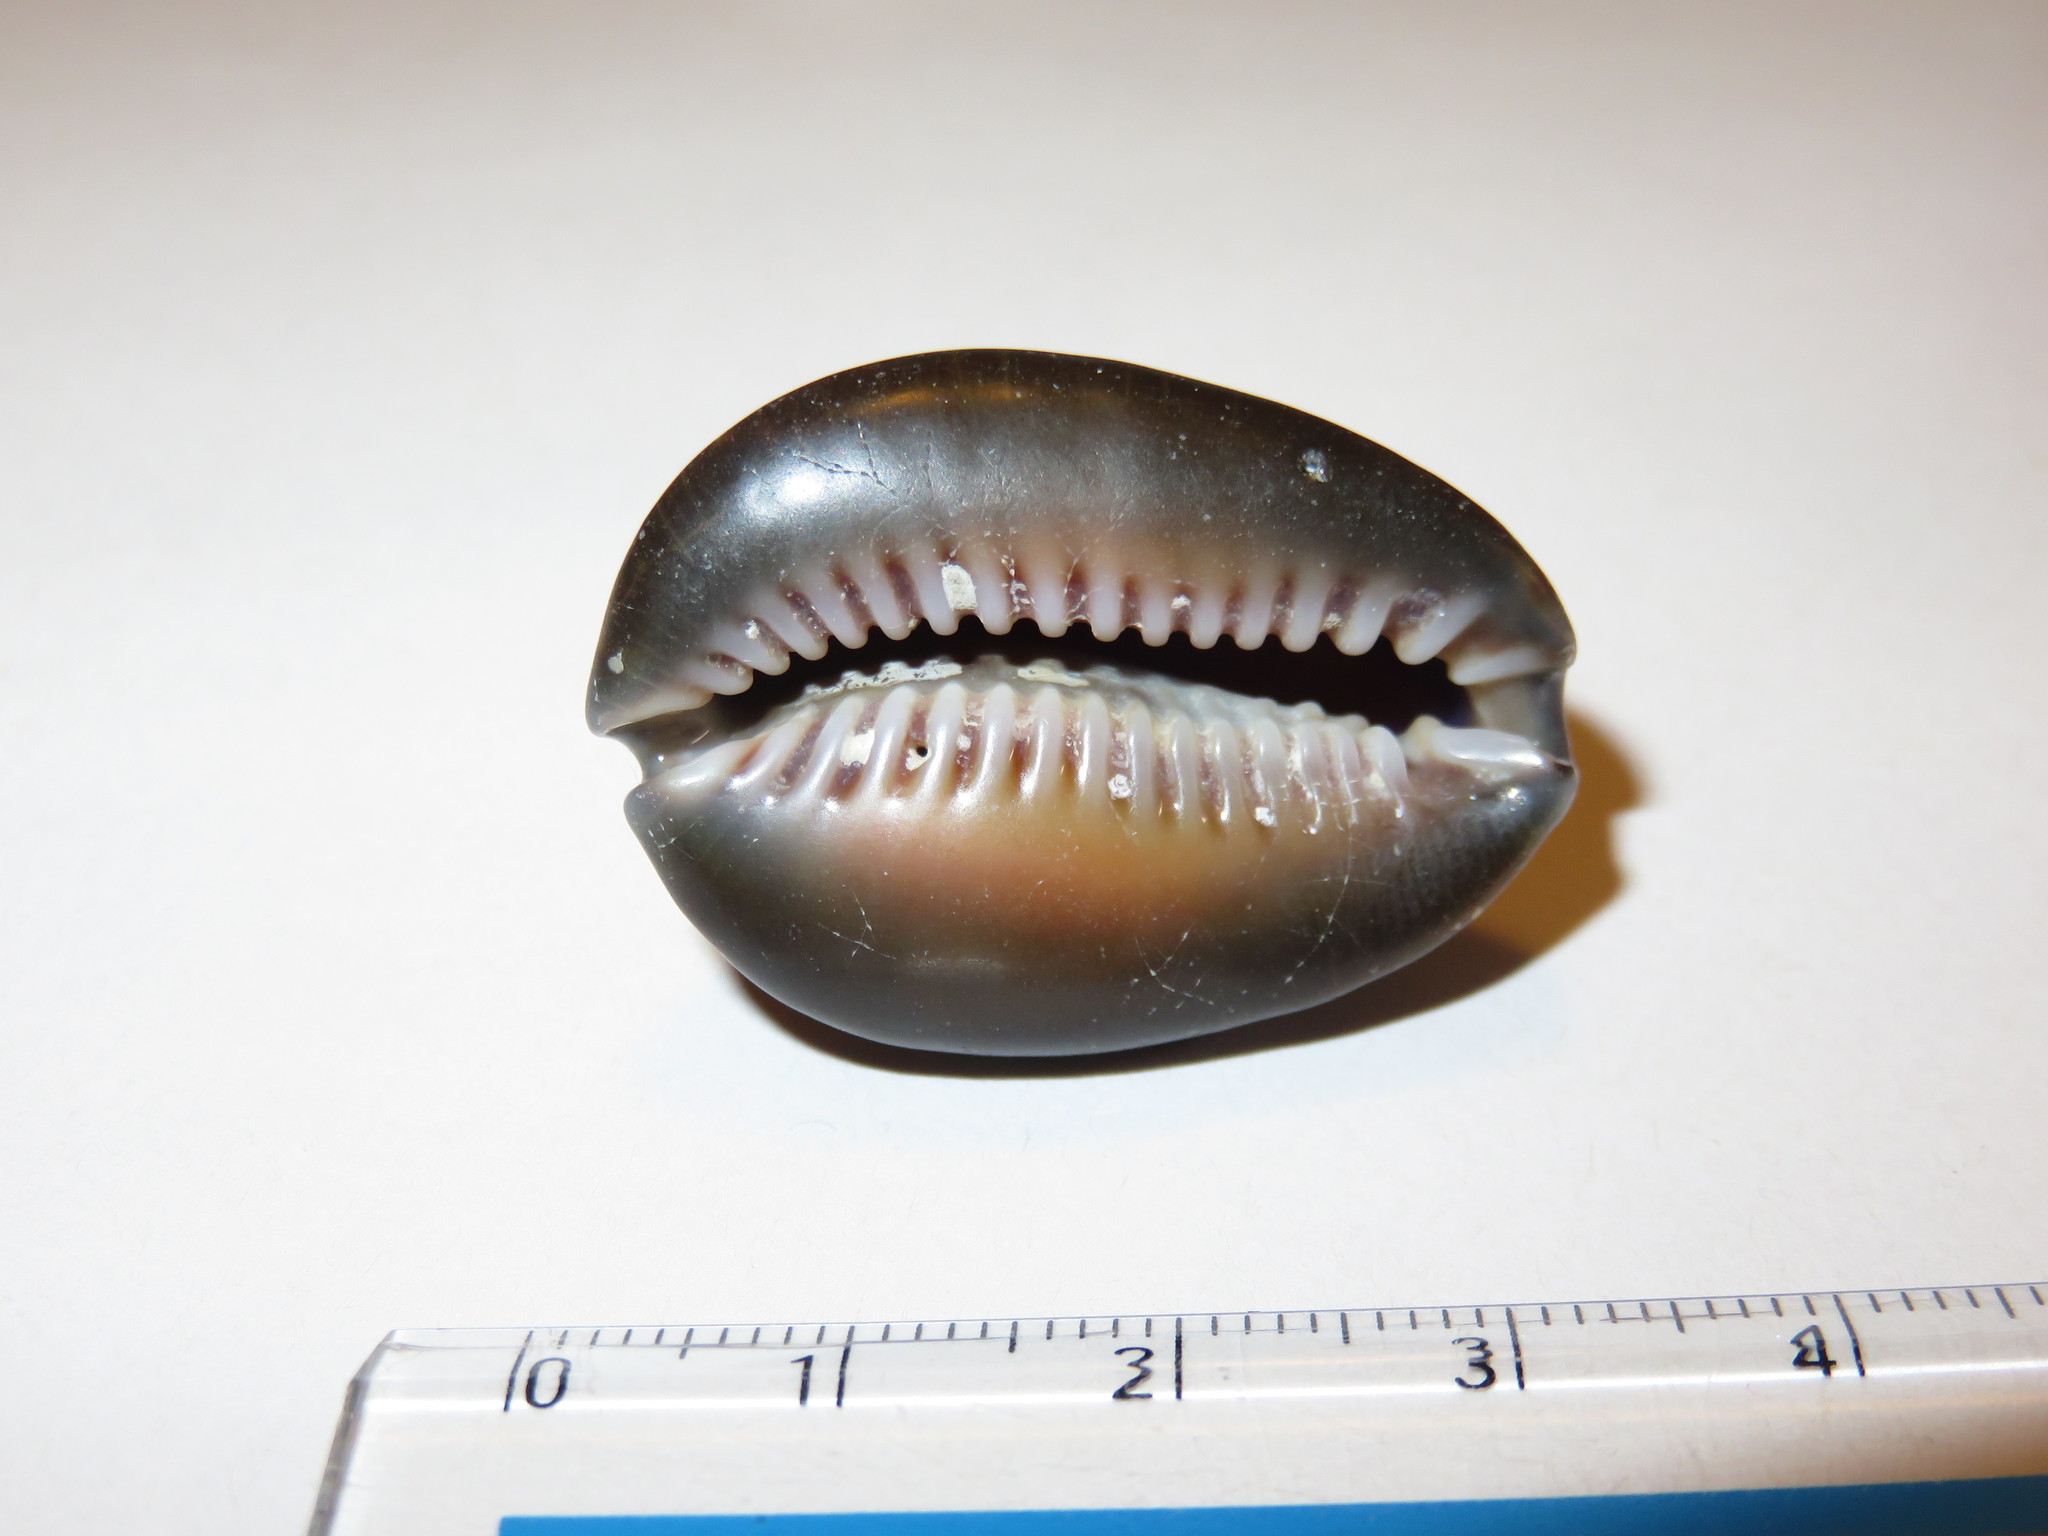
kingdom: Animalia
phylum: Mollusca
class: Gastropoda
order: Littorinimorpha
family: Cypraeidae
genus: Monetaria
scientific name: Monetaria caputserpentis
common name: Serpent's head cowrie
